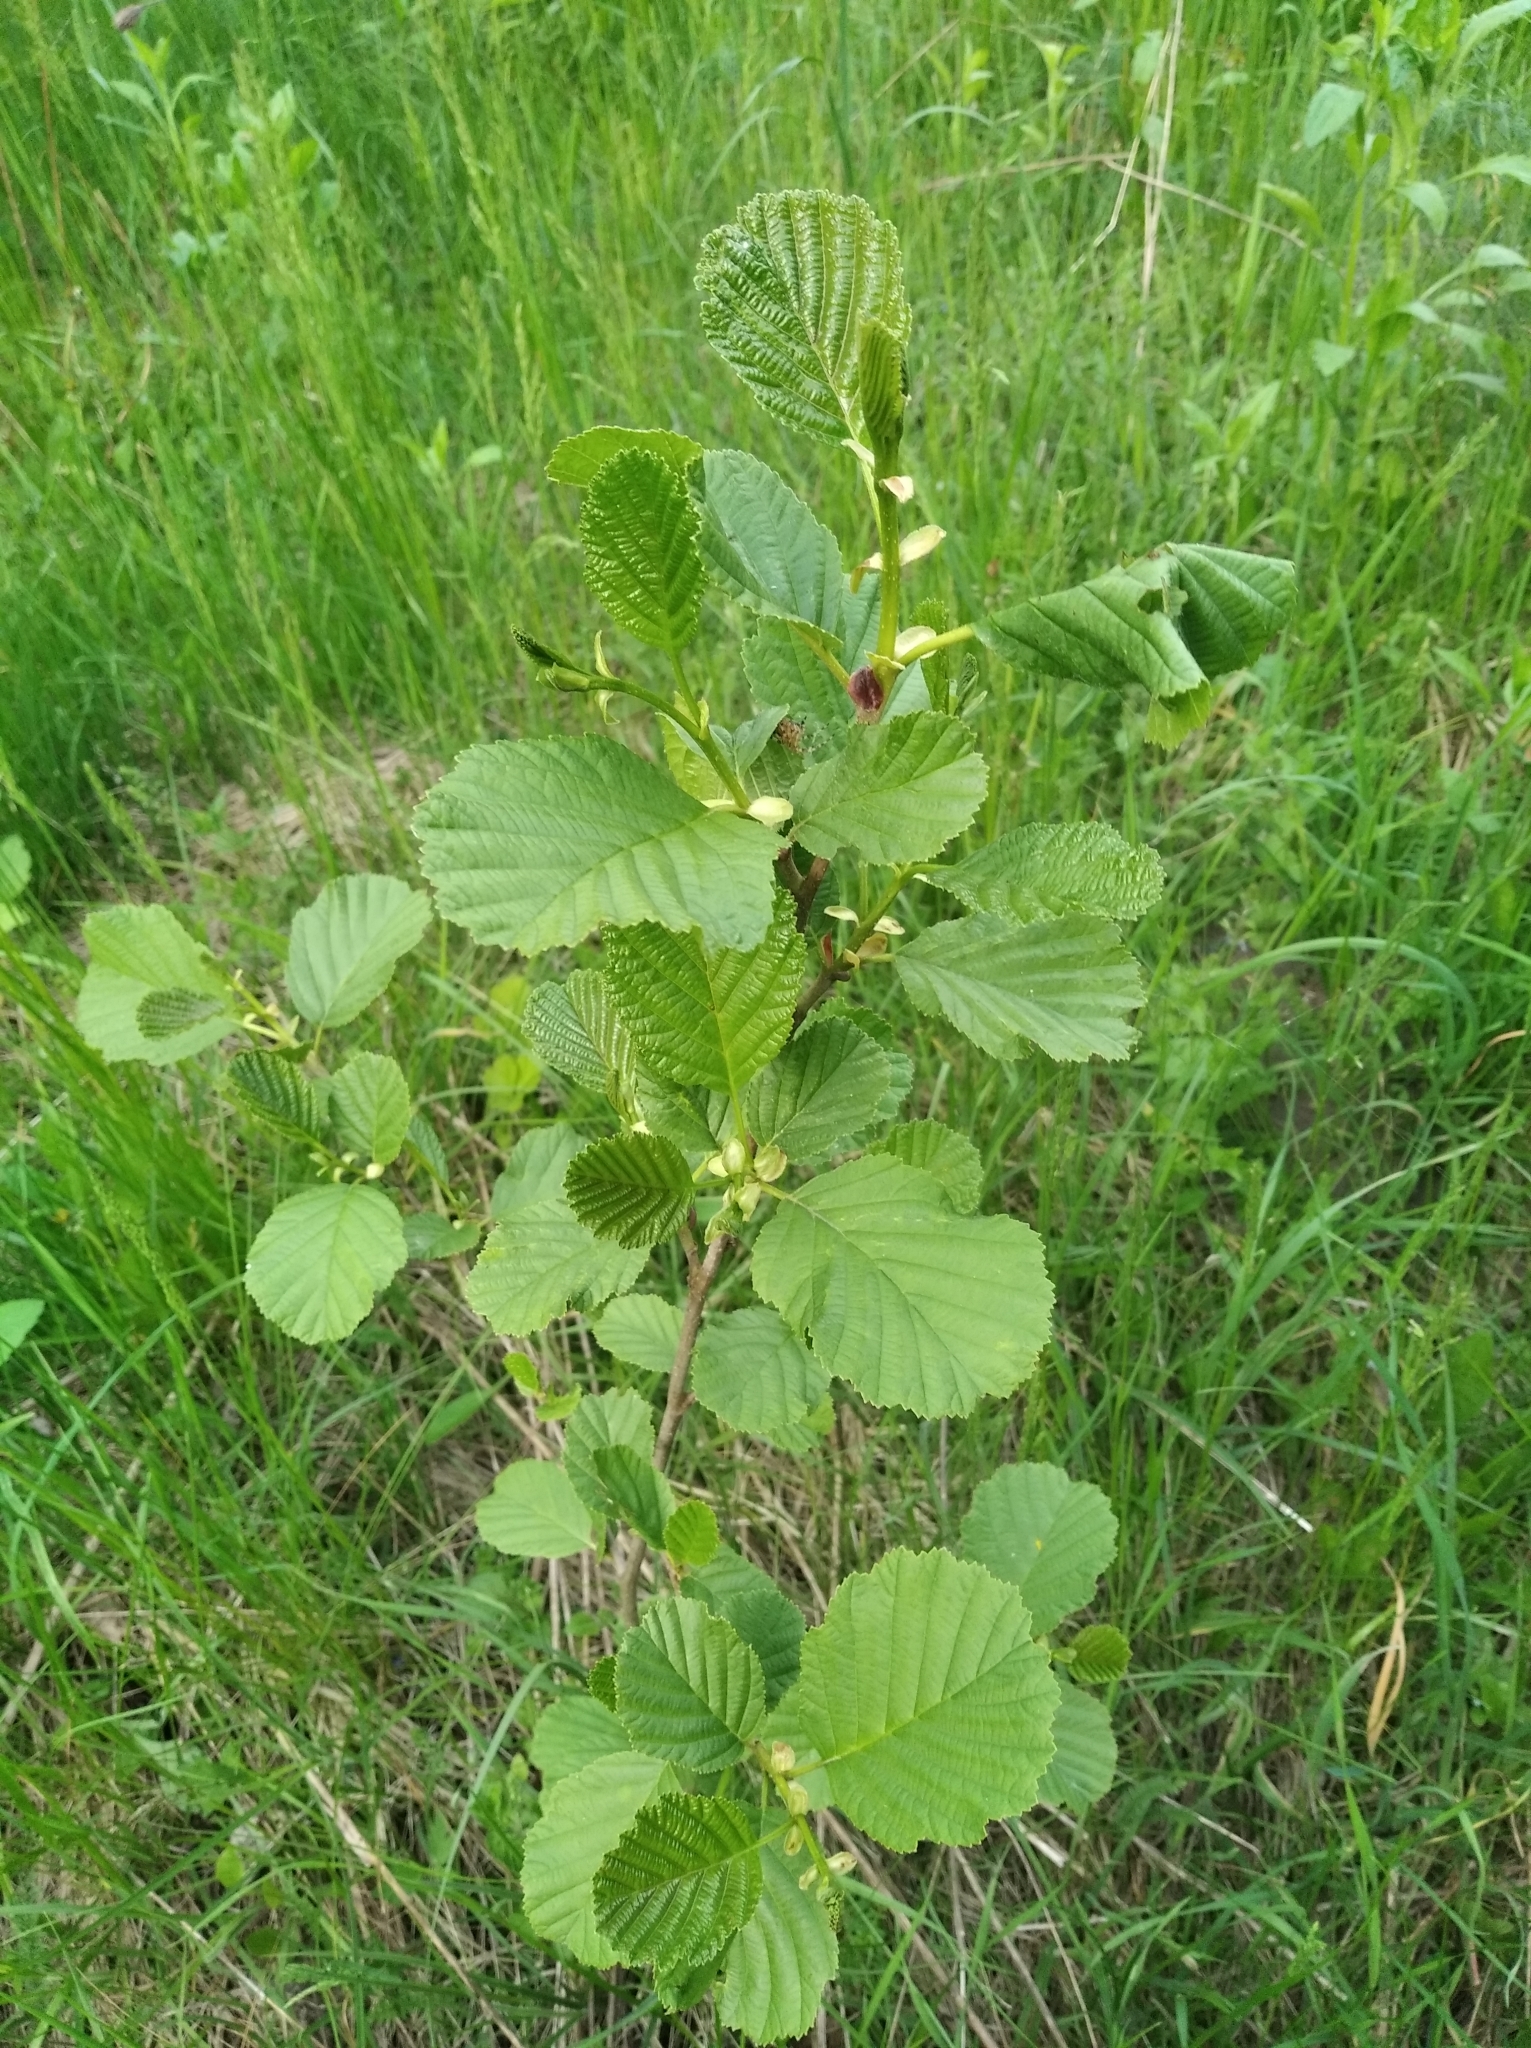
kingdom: Plantae
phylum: Tracheophyta
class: Magnoliopsida
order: Fagales
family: Betulaceae
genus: Alnus
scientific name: Alnus glutinosa
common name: Black alder
